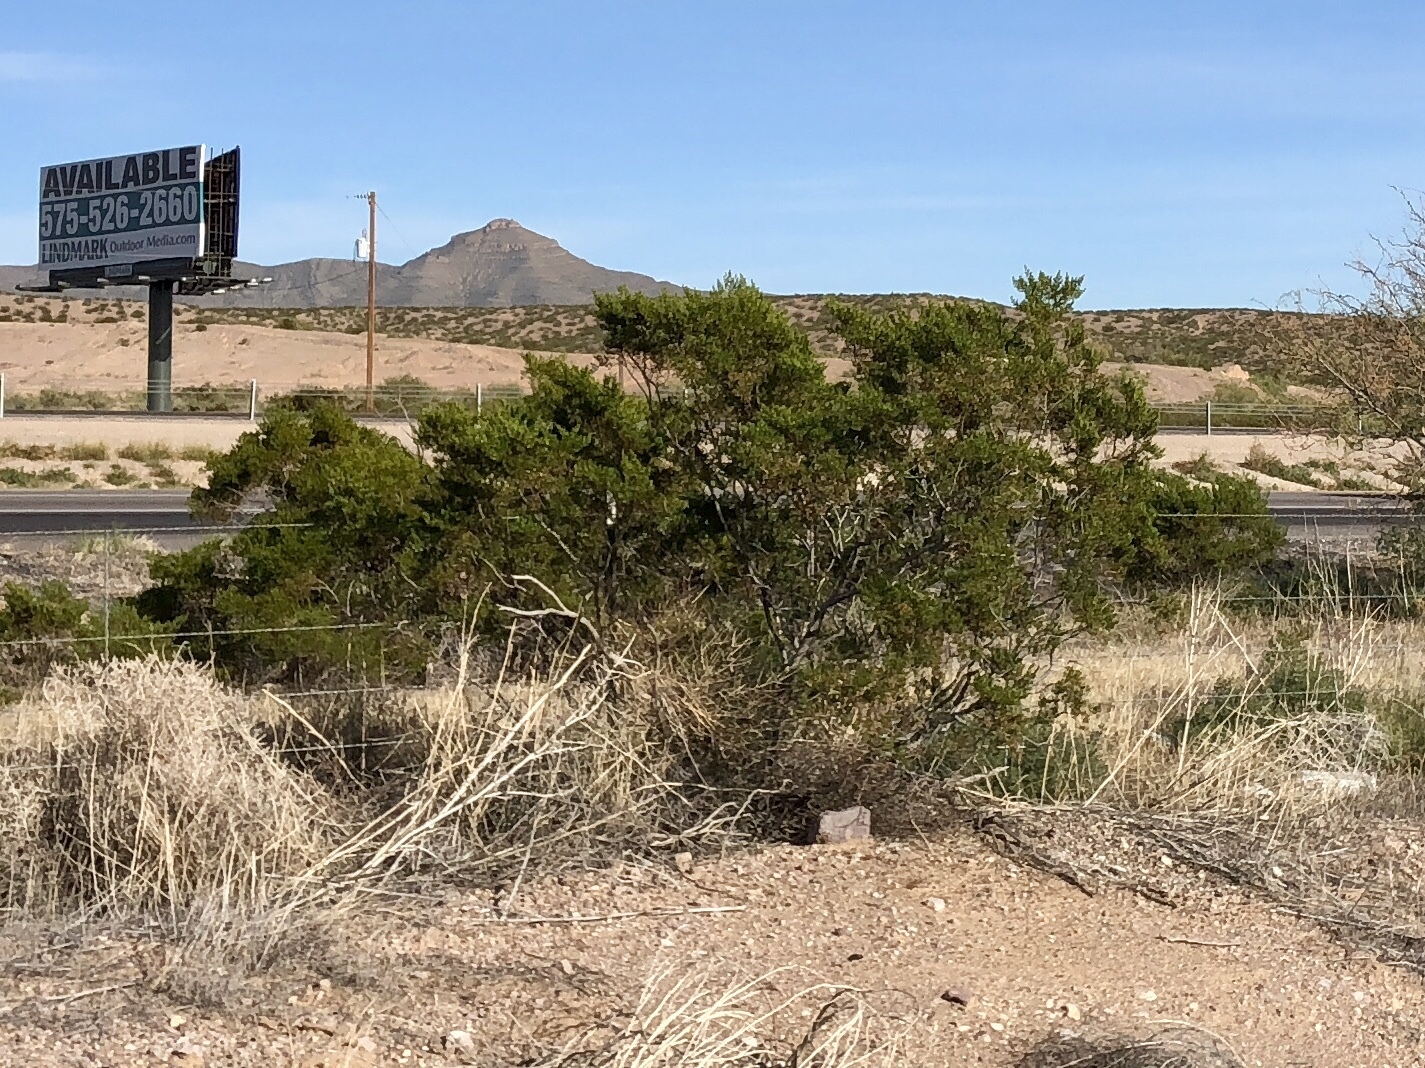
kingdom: Plantae
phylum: Tracheophyta
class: Magnoliopsida
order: Zygophyllales
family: Zygophyllaceae
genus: Larrea
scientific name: Larrea tridentata
